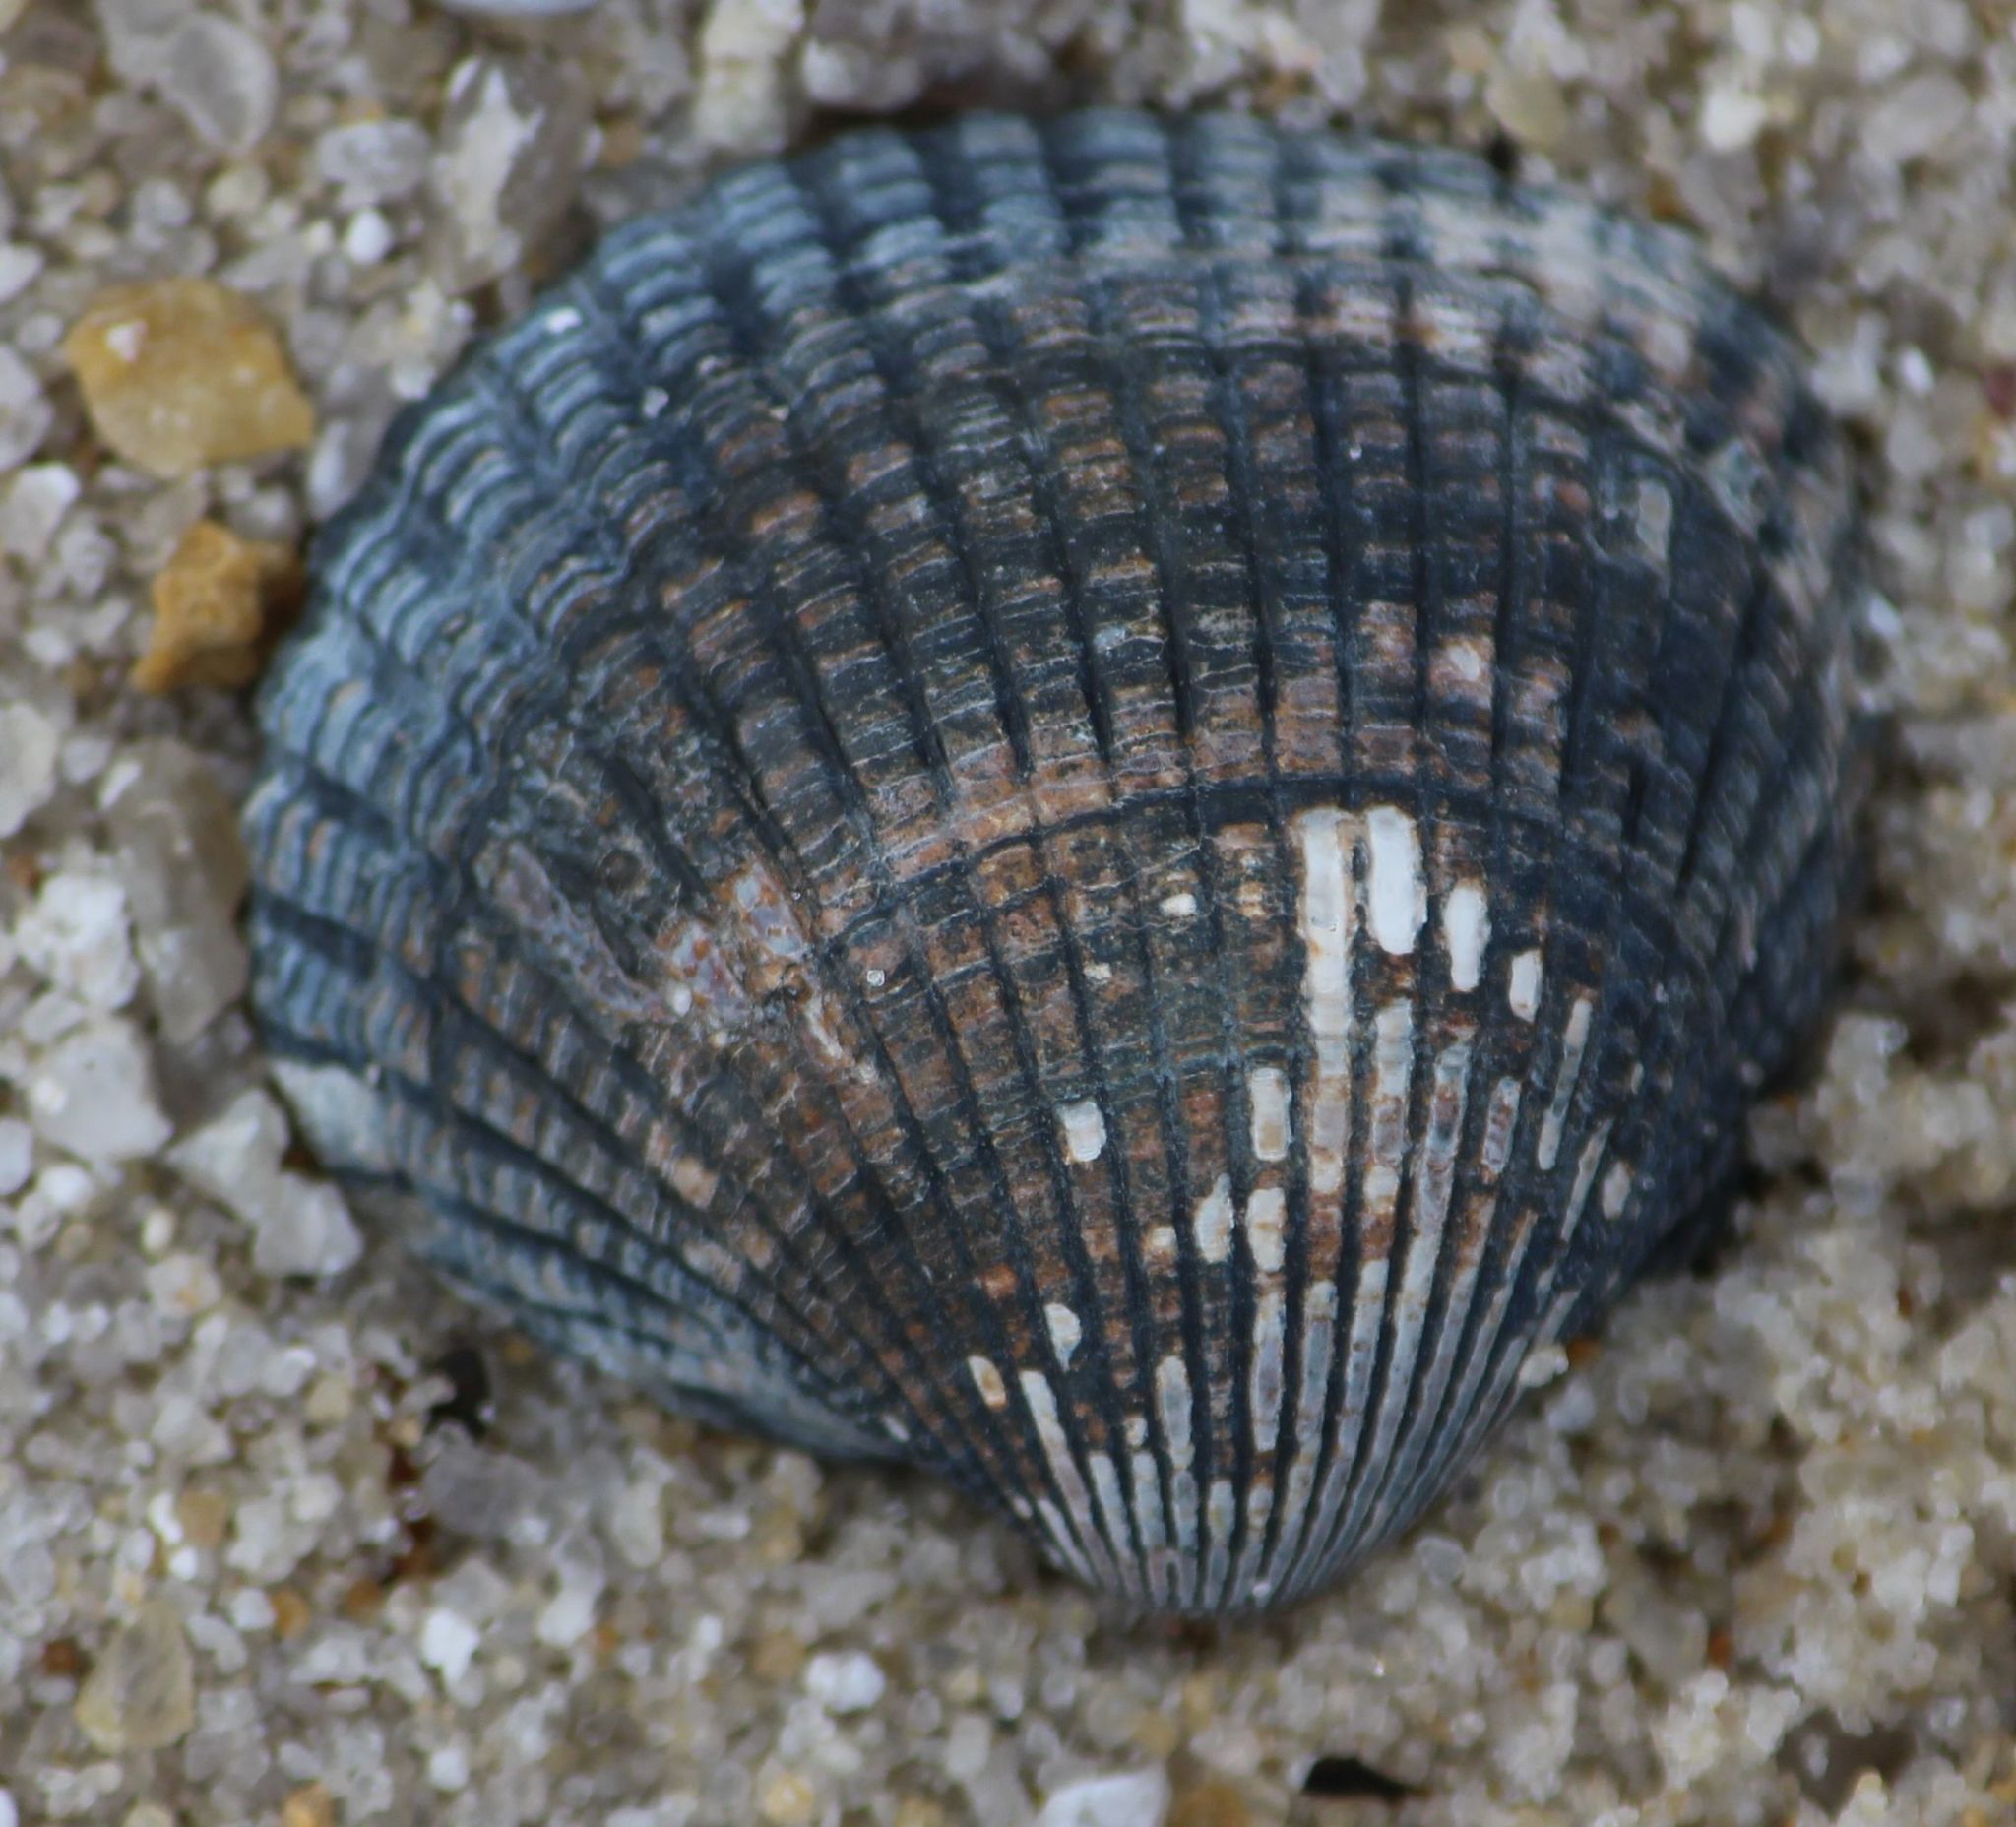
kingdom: Animalia
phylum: Mollusca
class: Bivalvia
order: Cardiida
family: Cardiidae
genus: Cerastoderma
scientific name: Cerastoderma edule
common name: Common cockle
